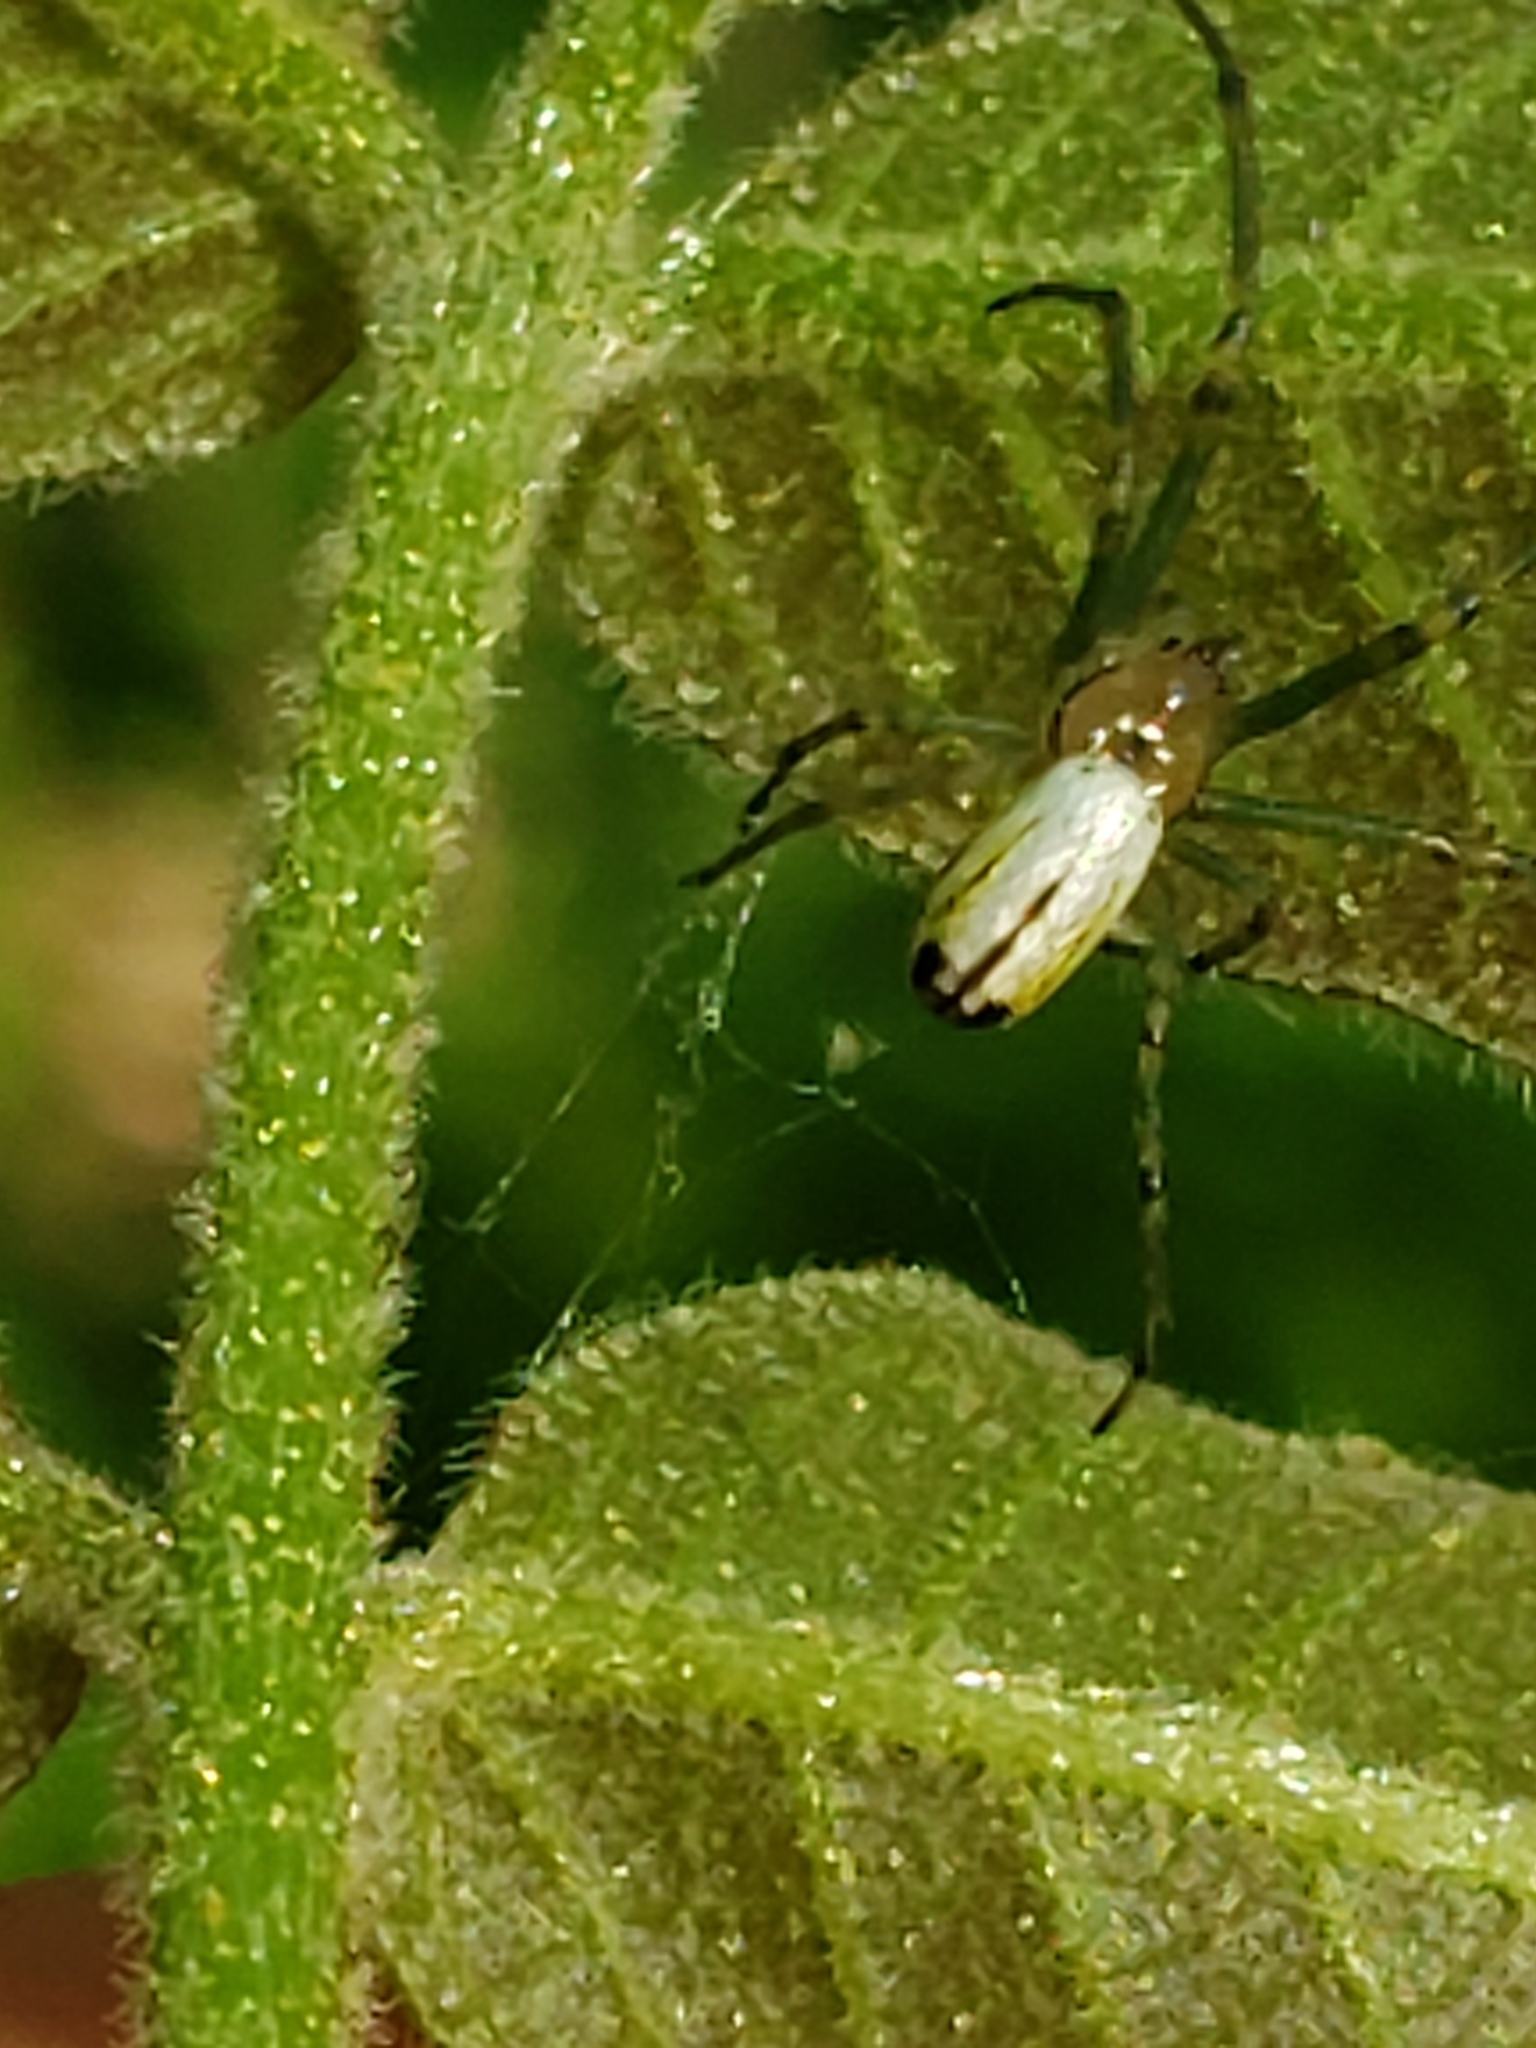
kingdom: Animalia
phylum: Arthropoda
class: Arachnida
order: Araneae
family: Tetragnathidae
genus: Leucauge
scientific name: Leucauge venusta
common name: Longjawed orb weavers
